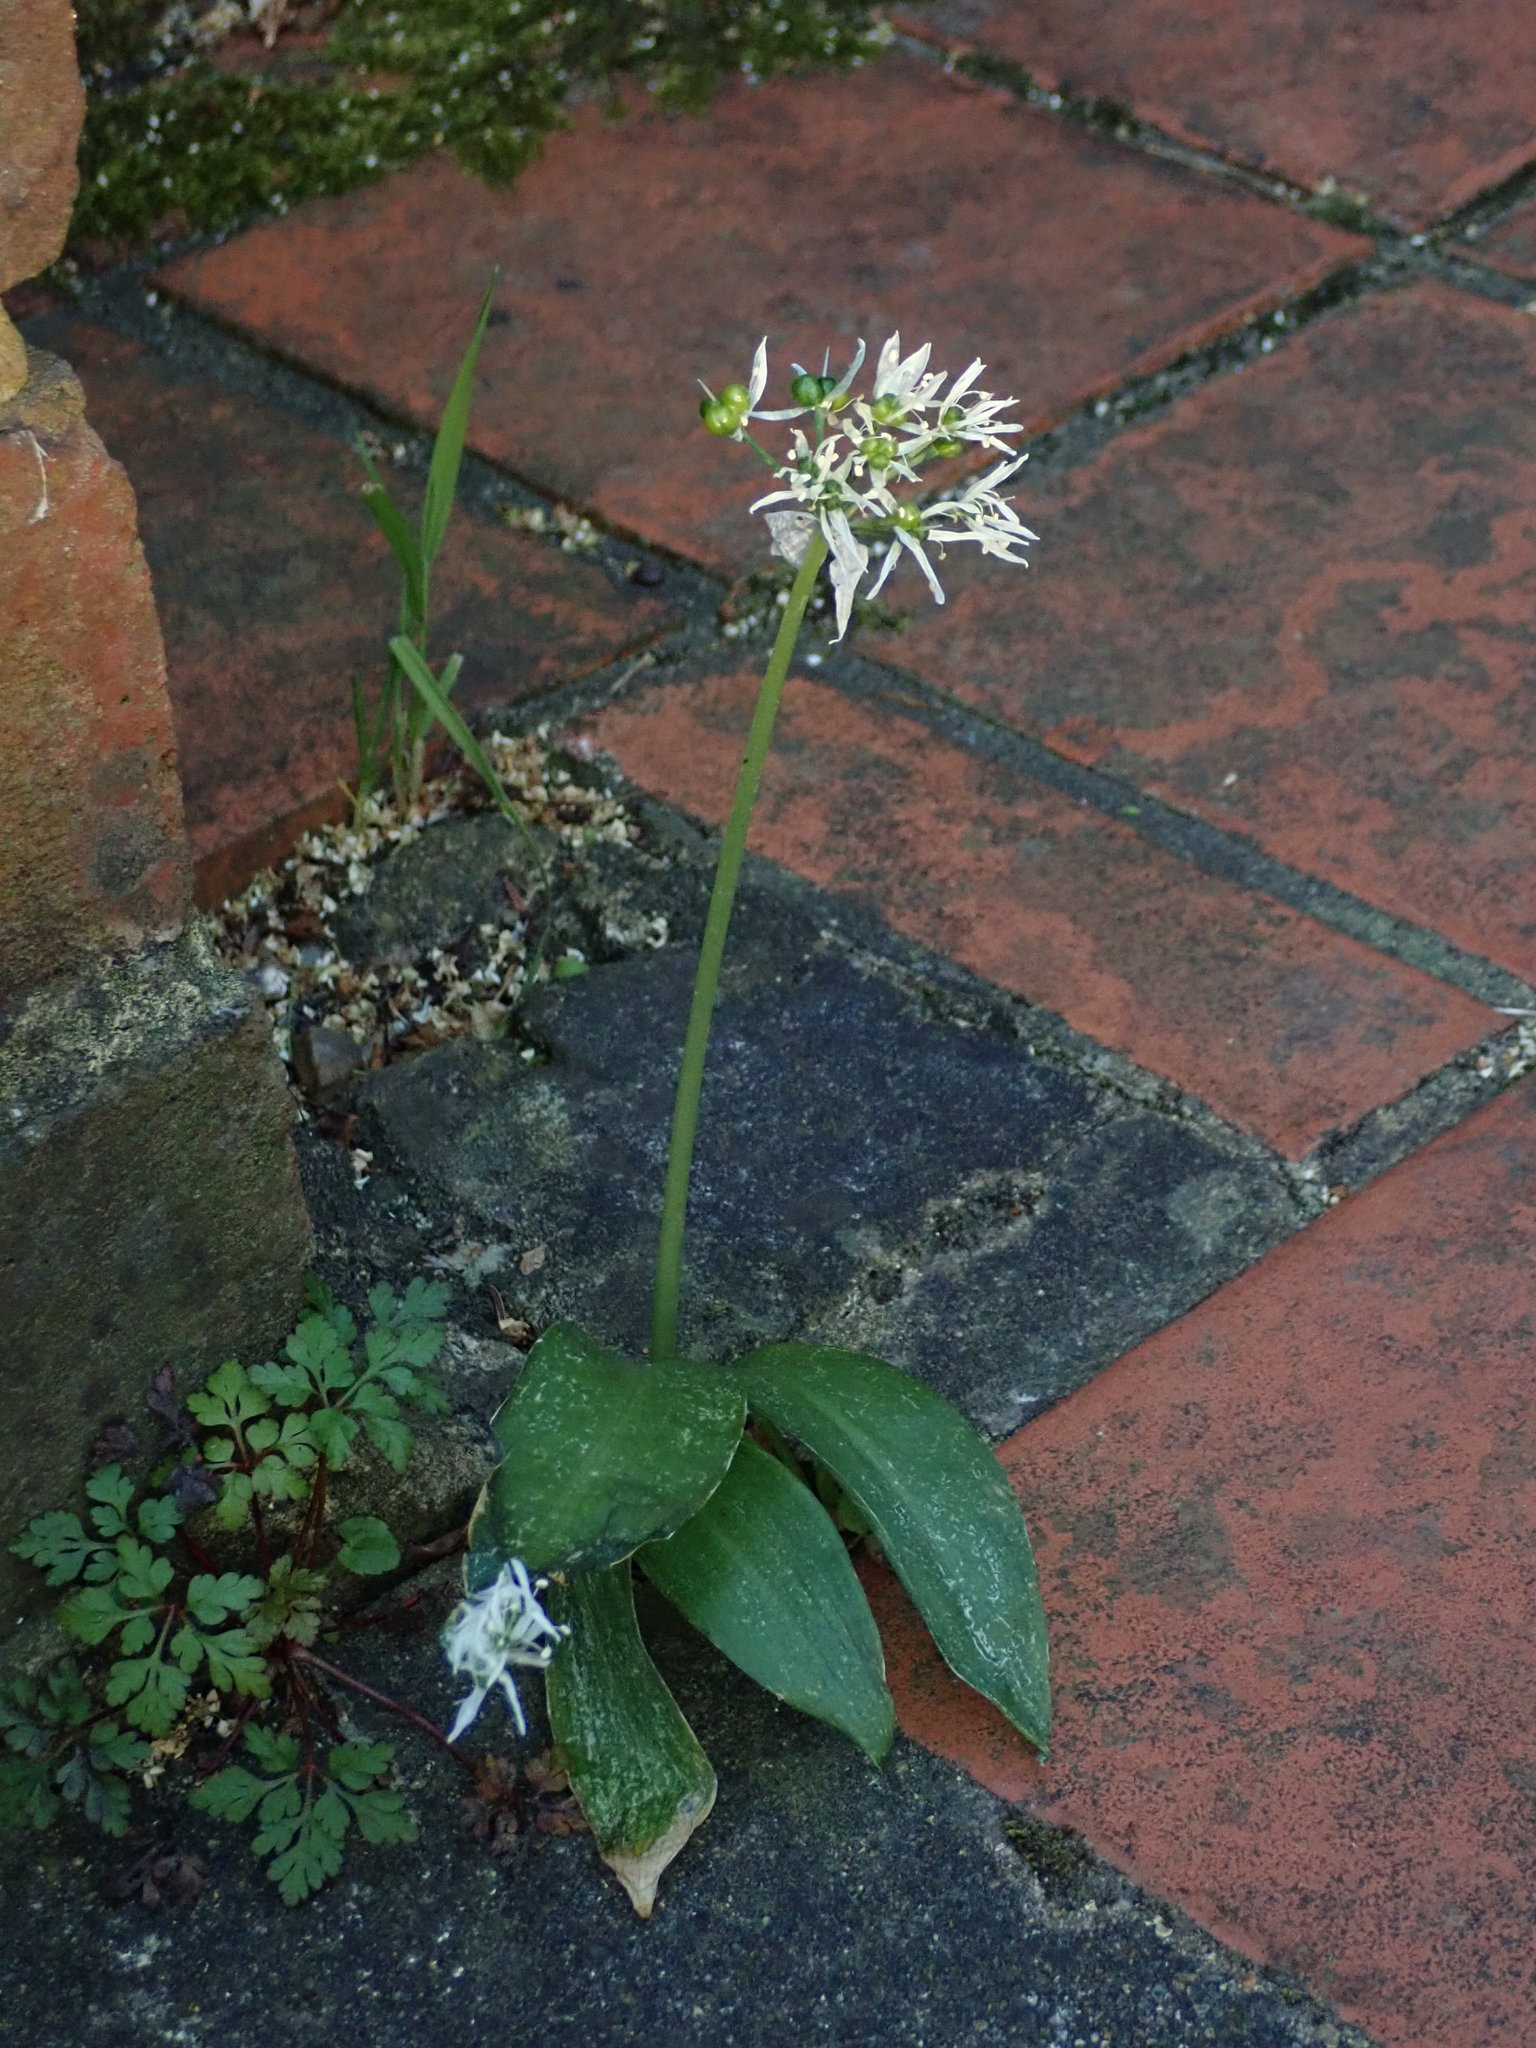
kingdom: Plantae
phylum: Tracheophyta
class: Liliopsida
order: Asparagales
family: Amaryllidaceae
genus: Allium
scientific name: Allium ursinum
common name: Ramsons
